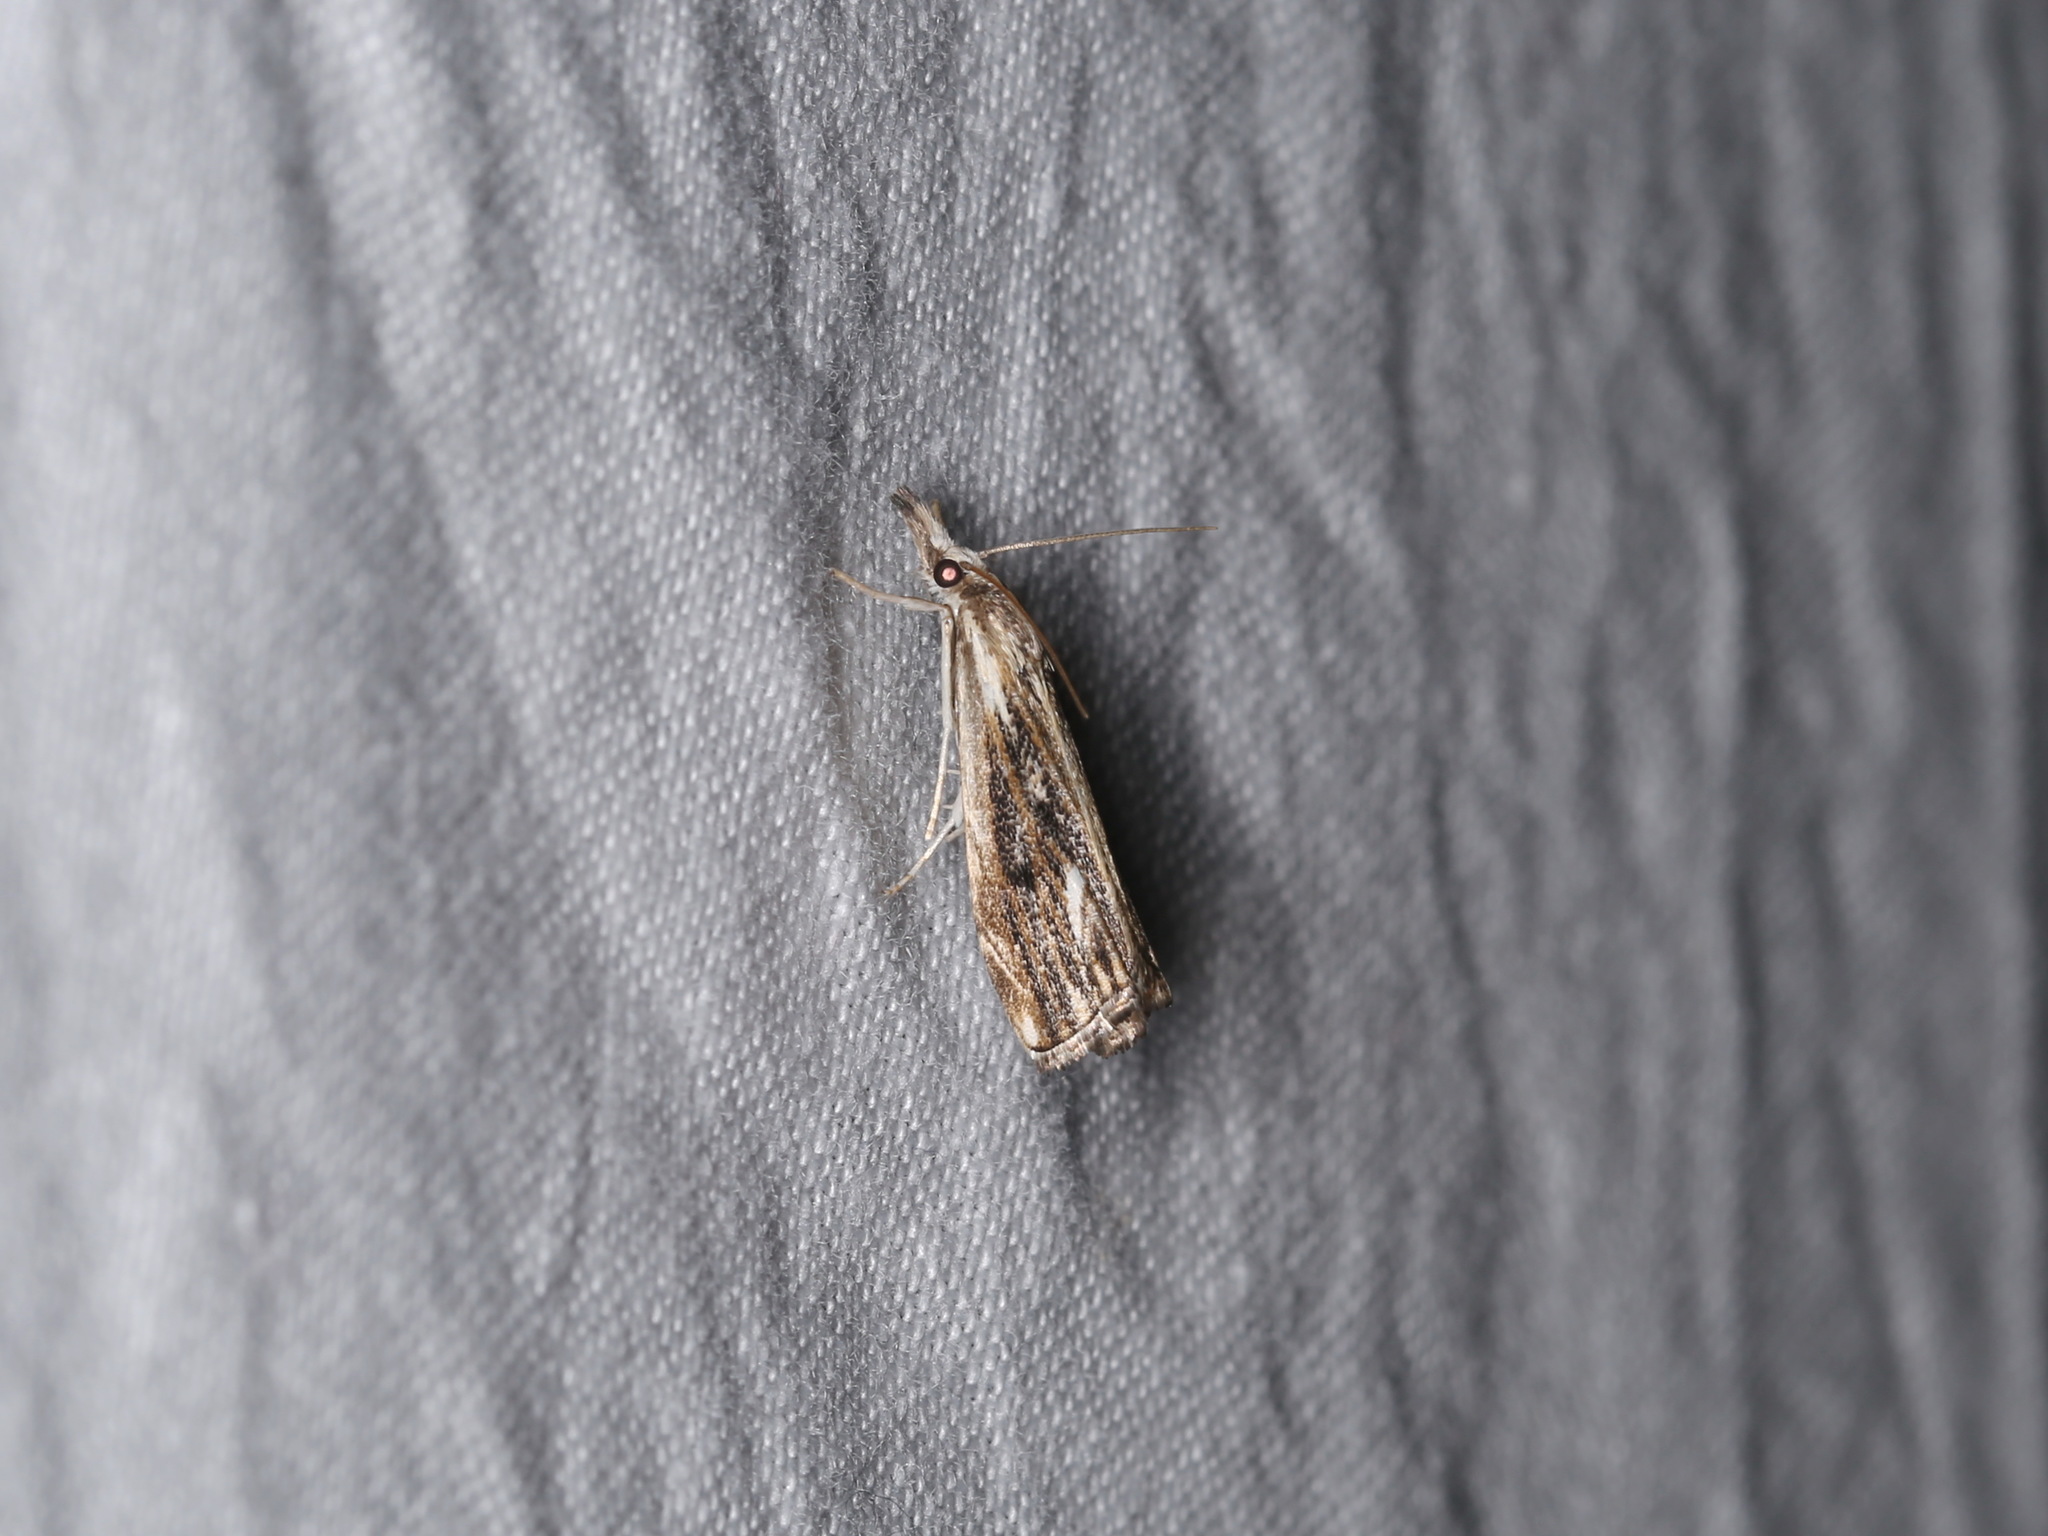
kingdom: Animalia
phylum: Arthropoda
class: Insecta
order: Lepidoptera
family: Crambidae
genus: Catoptria
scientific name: Catoptria verellus
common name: Marbled grass-veneer
